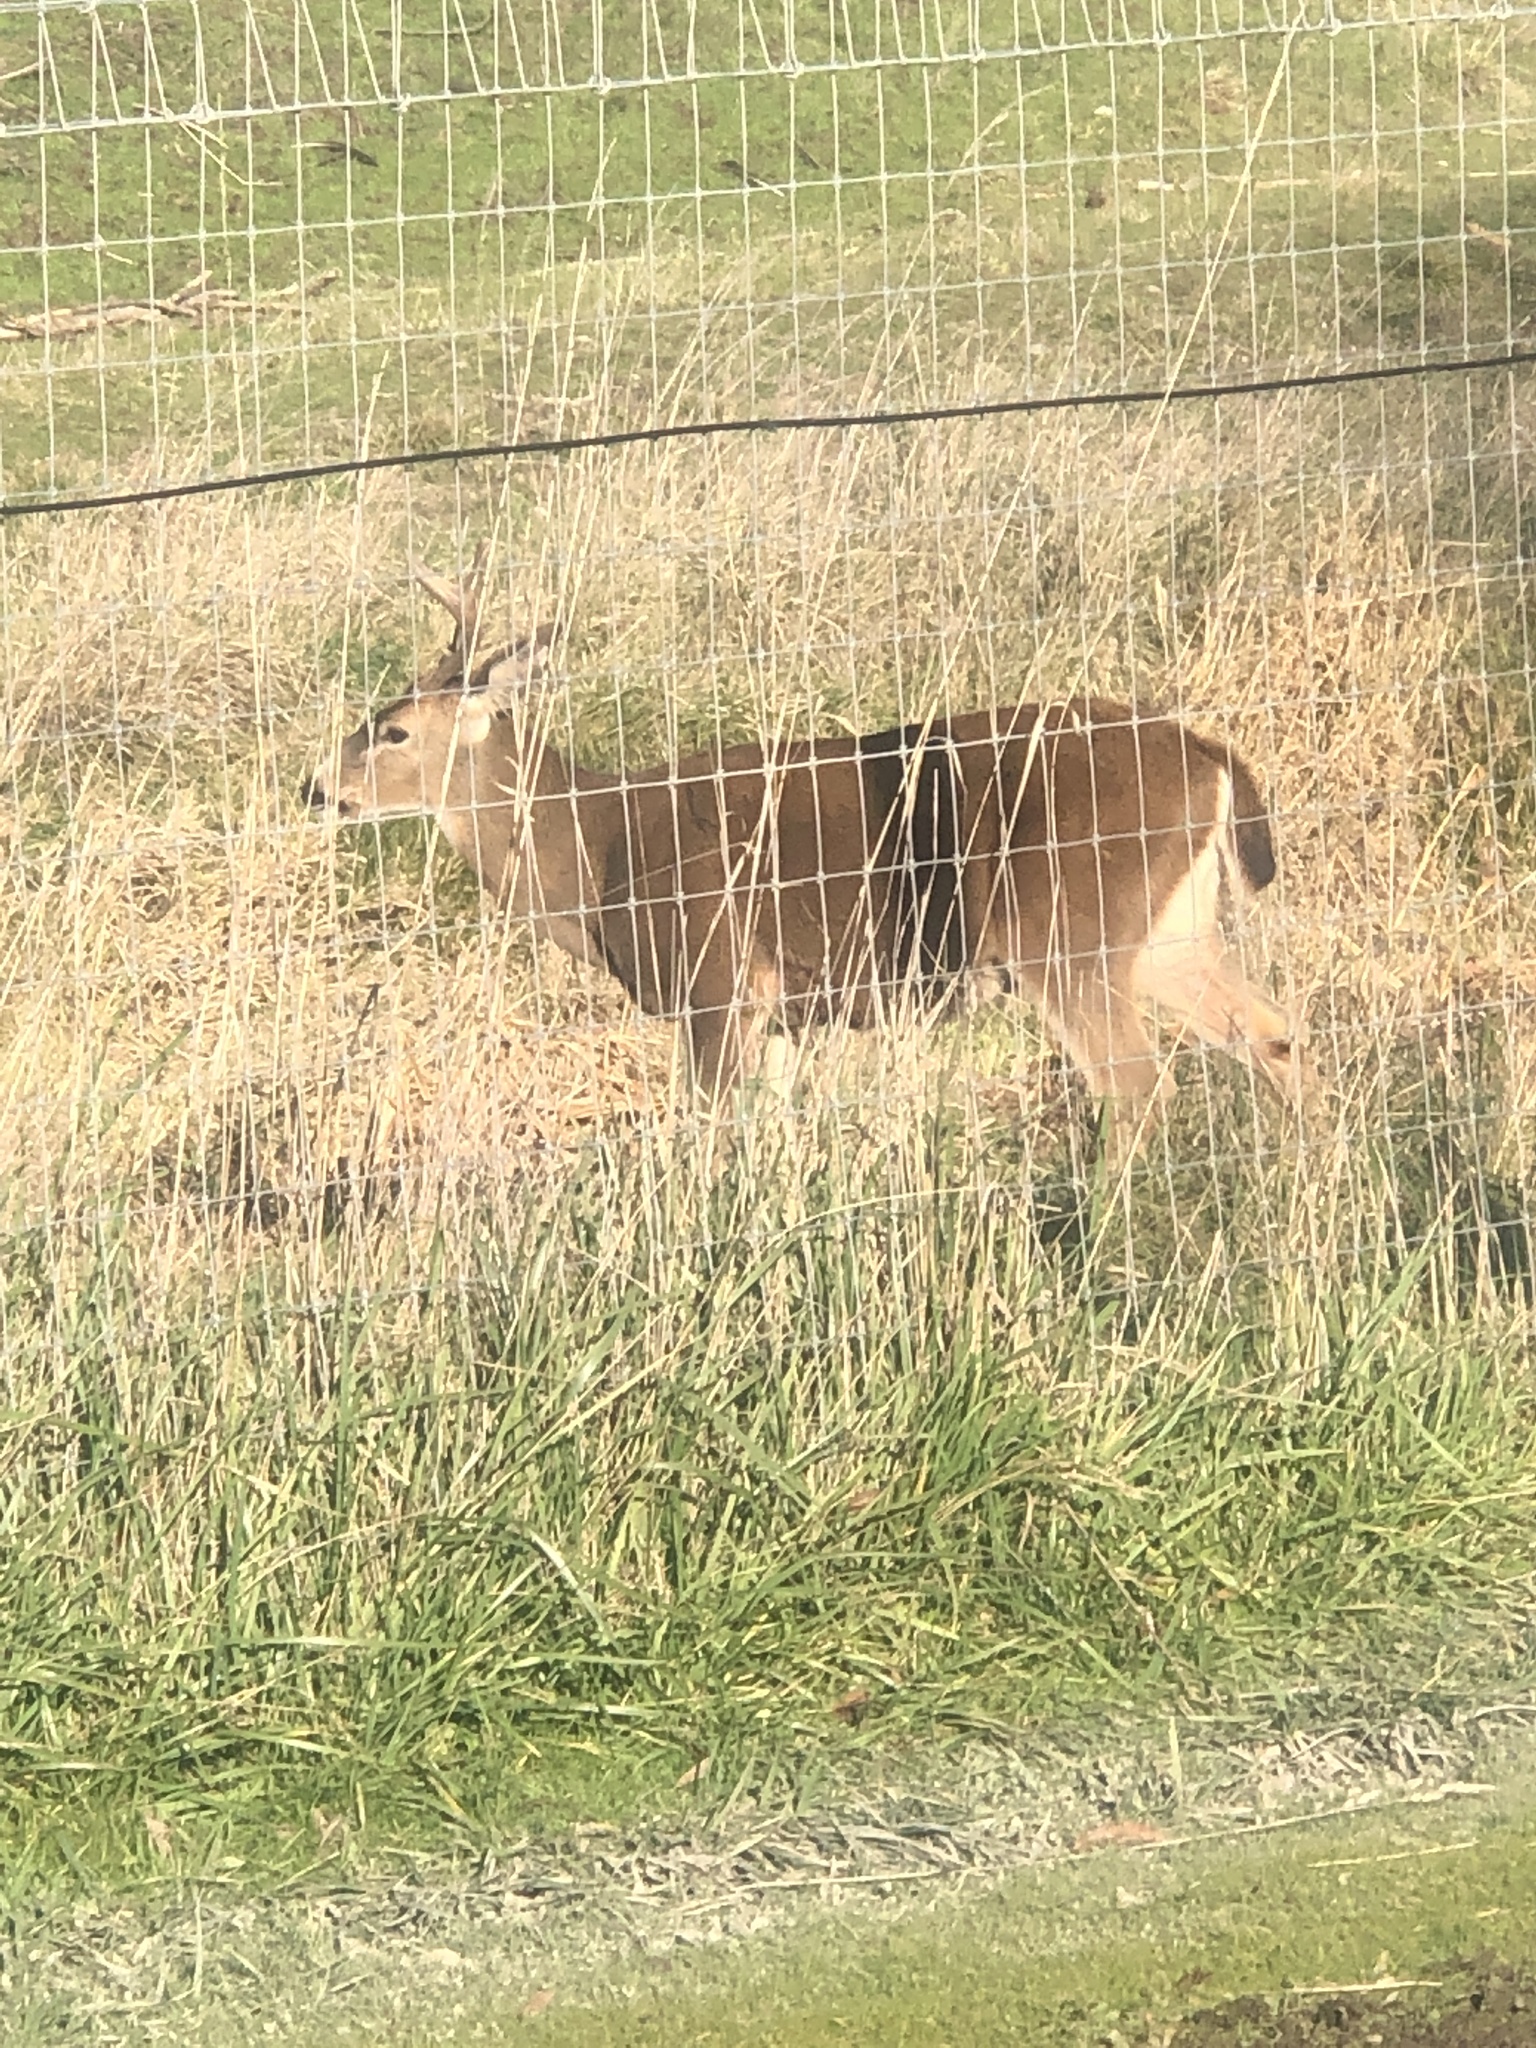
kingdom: Animalia
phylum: Chordata
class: Mammalia
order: Artiodactyla
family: Cervidae
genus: Odocoileus
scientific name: Odocoileus hemionus
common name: Mule deer
